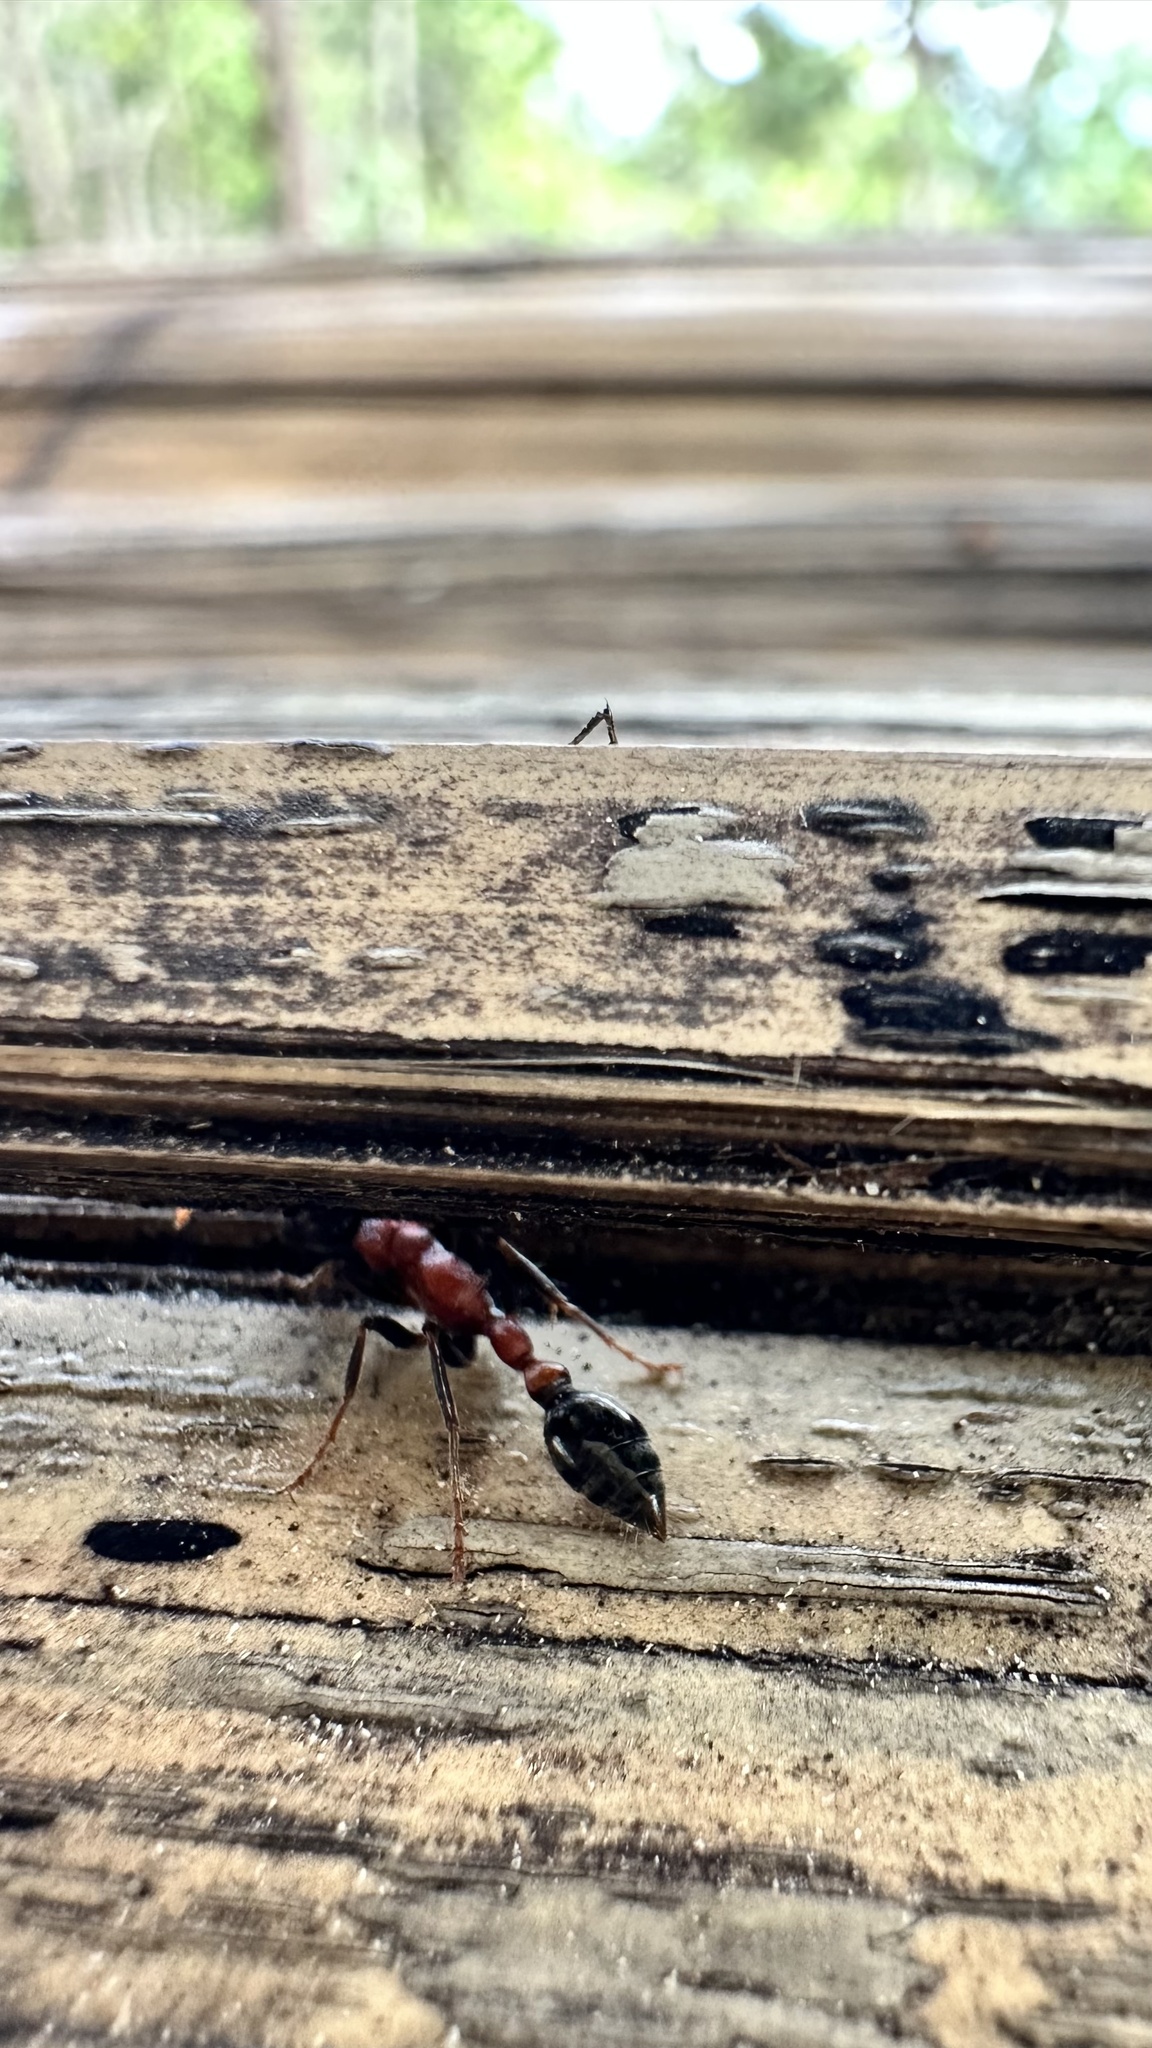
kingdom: Animalia
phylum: Arthropoda
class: Insecta
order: Hymenoptera
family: Formicidae
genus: Tetraponera
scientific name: Tetraponera rufonigra
